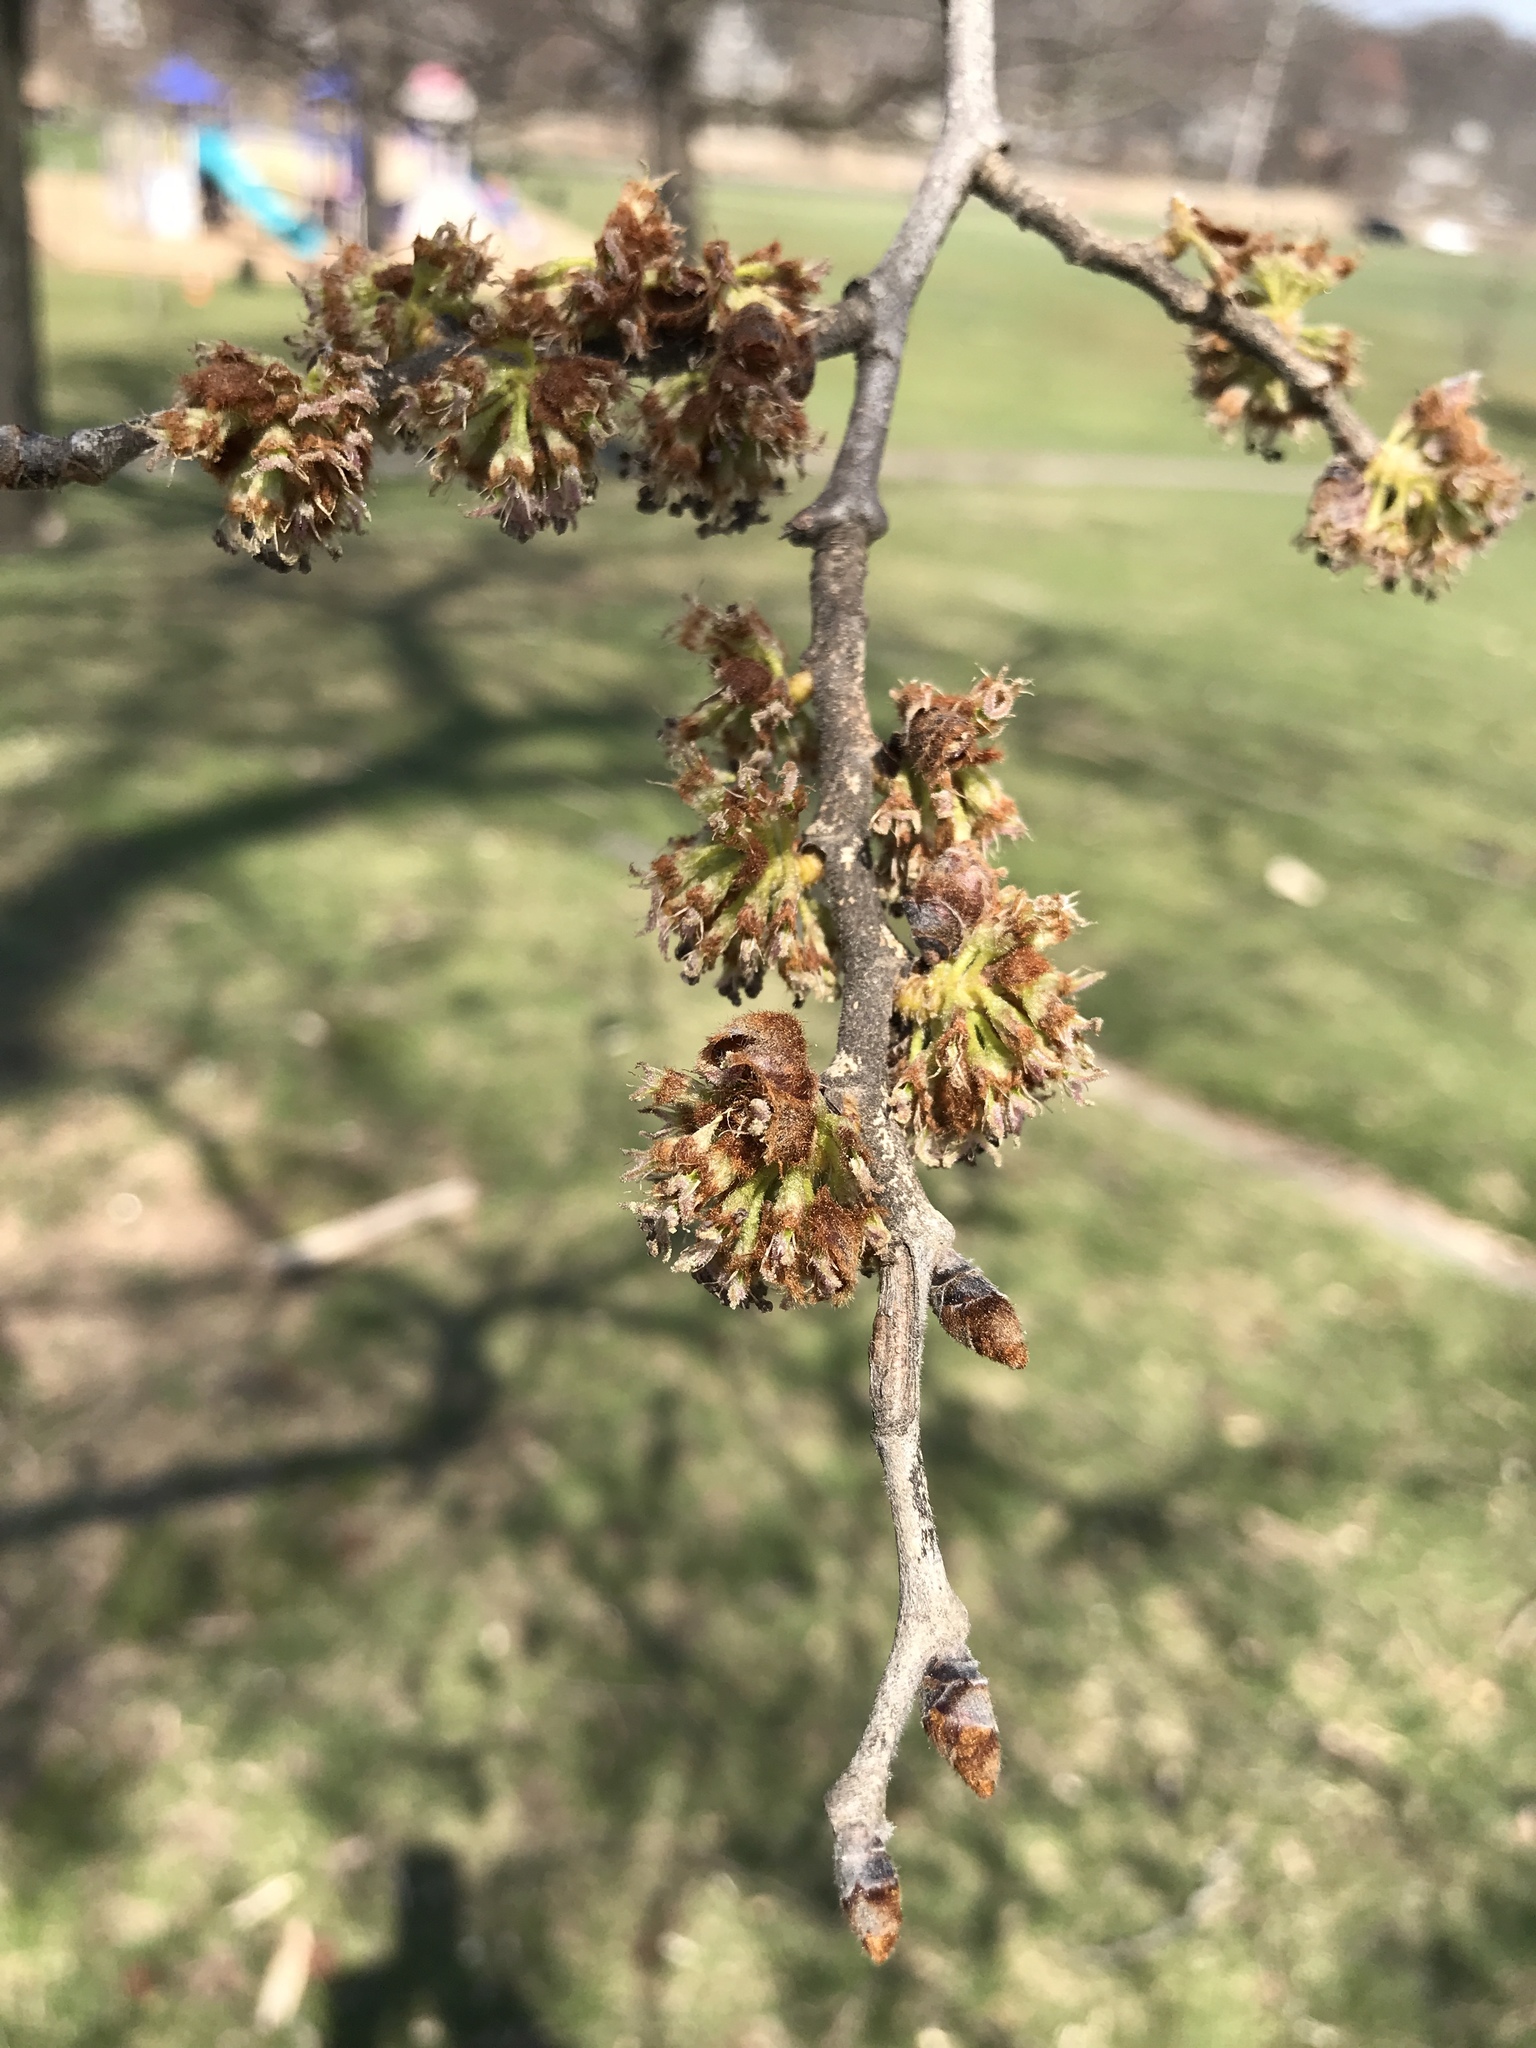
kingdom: Plantae
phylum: Tracheophyta
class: Magnoliopsida
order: Rosales
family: Ulmaceae
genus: Ulmus
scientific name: Ulmus rubra
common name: Slippery elm
